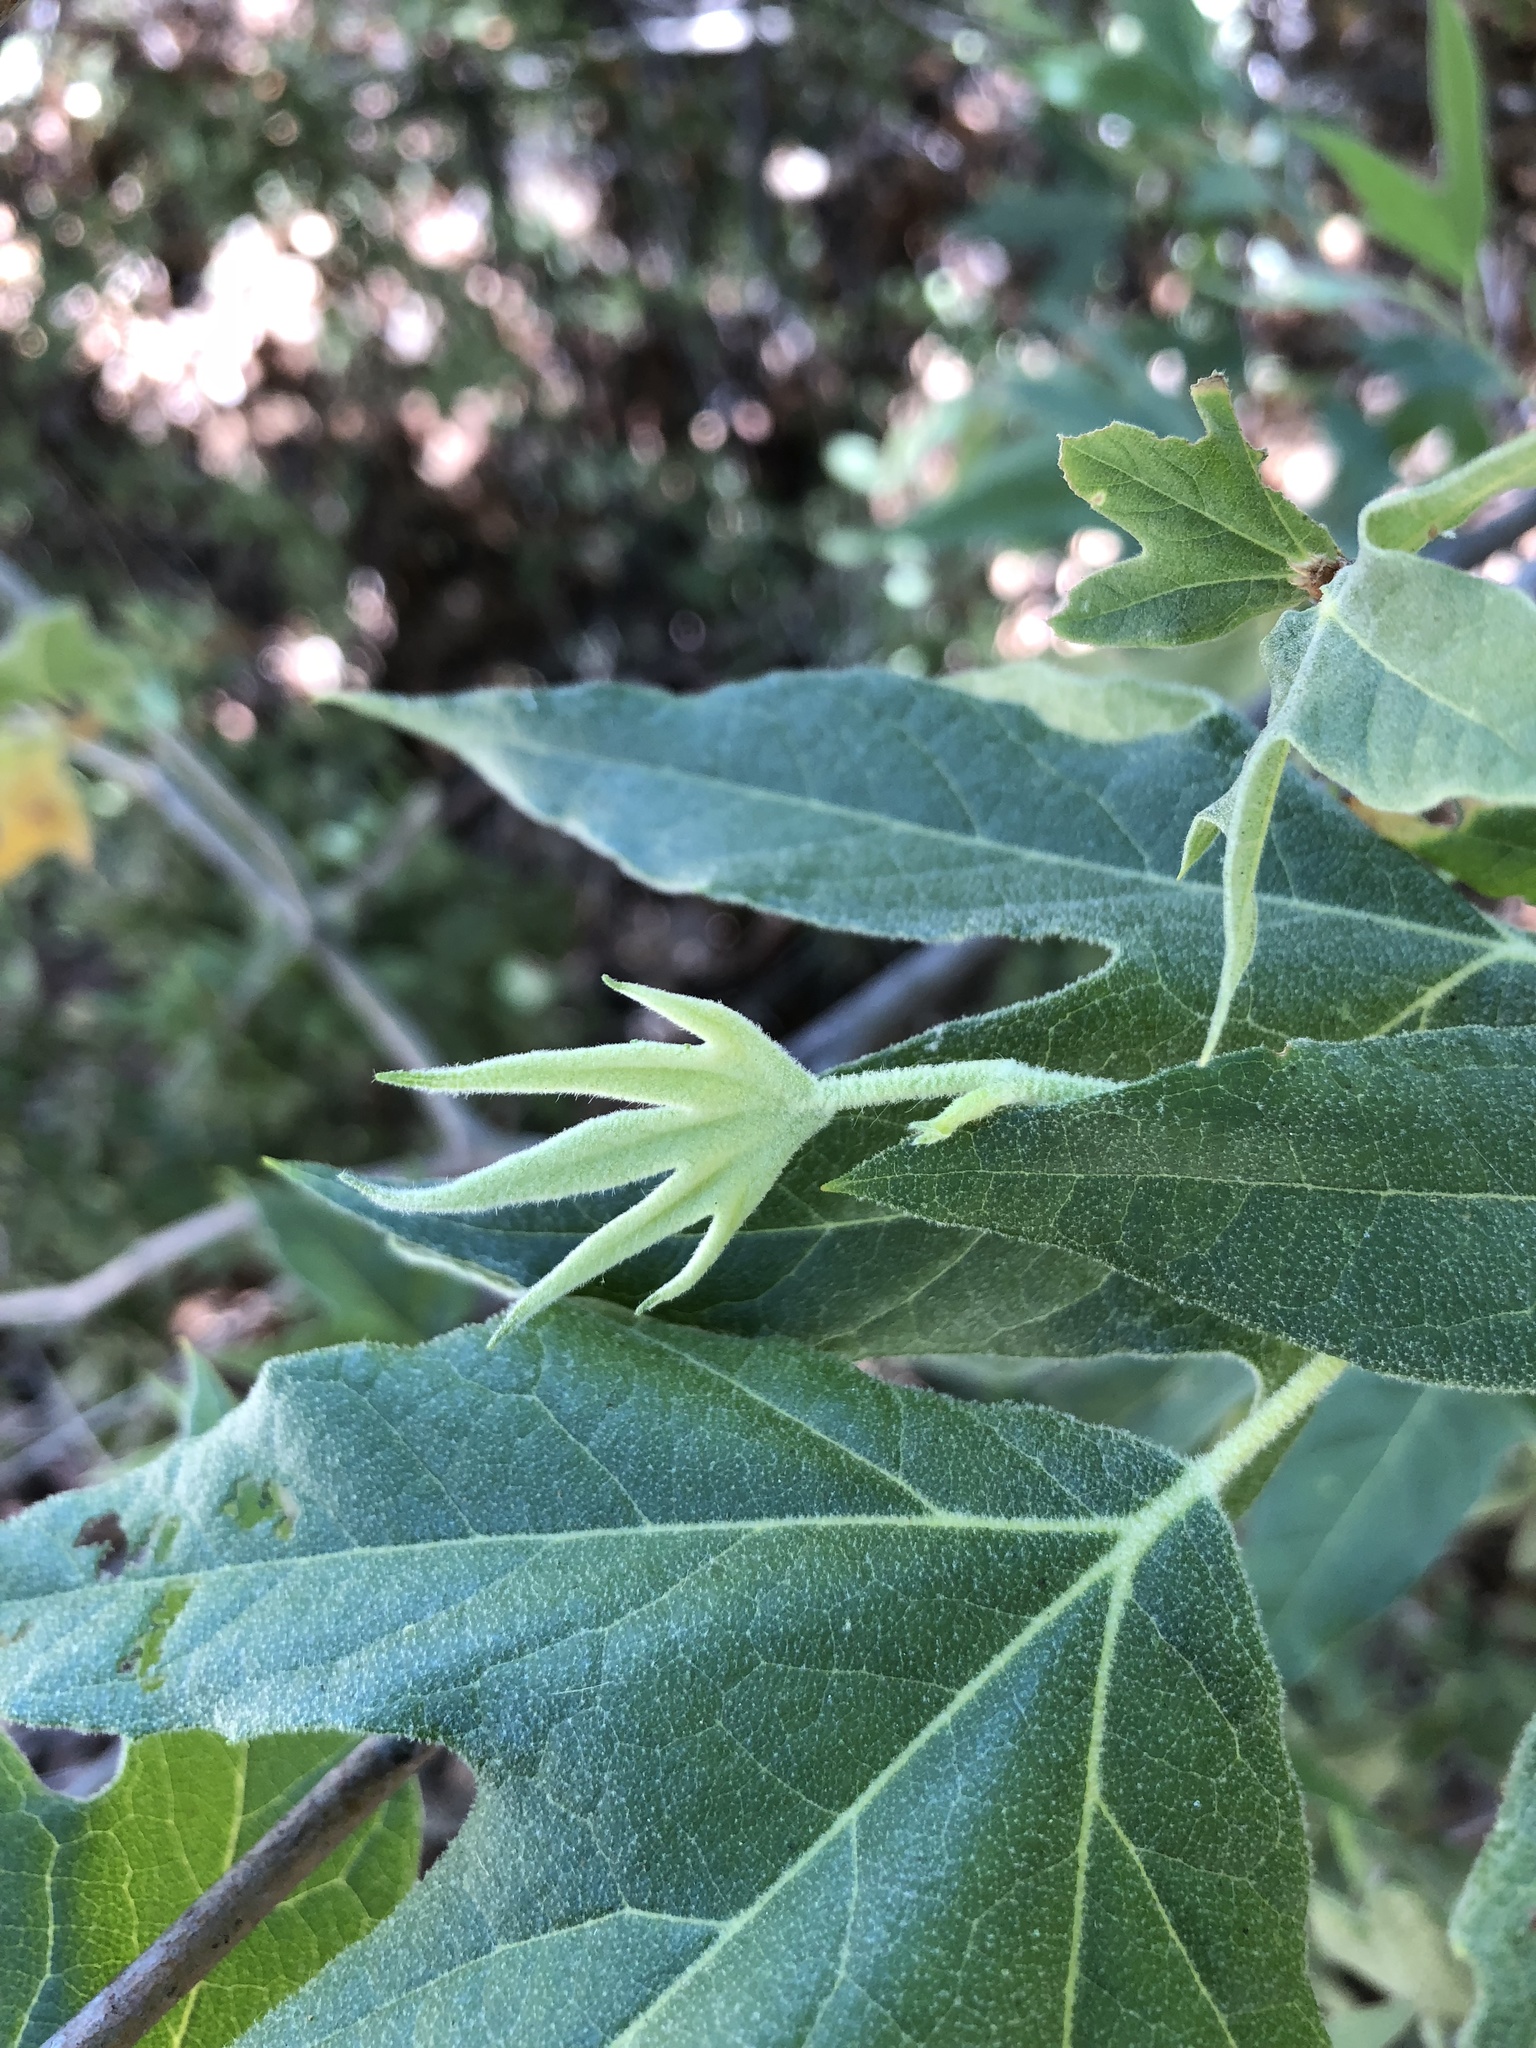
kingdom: Plantae
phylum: Tracheophyta
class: Magnoliopsida
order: Proteales
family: Platanaceae
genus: Platanus
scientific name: Platanus wrightii
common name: Arizona sycamore
